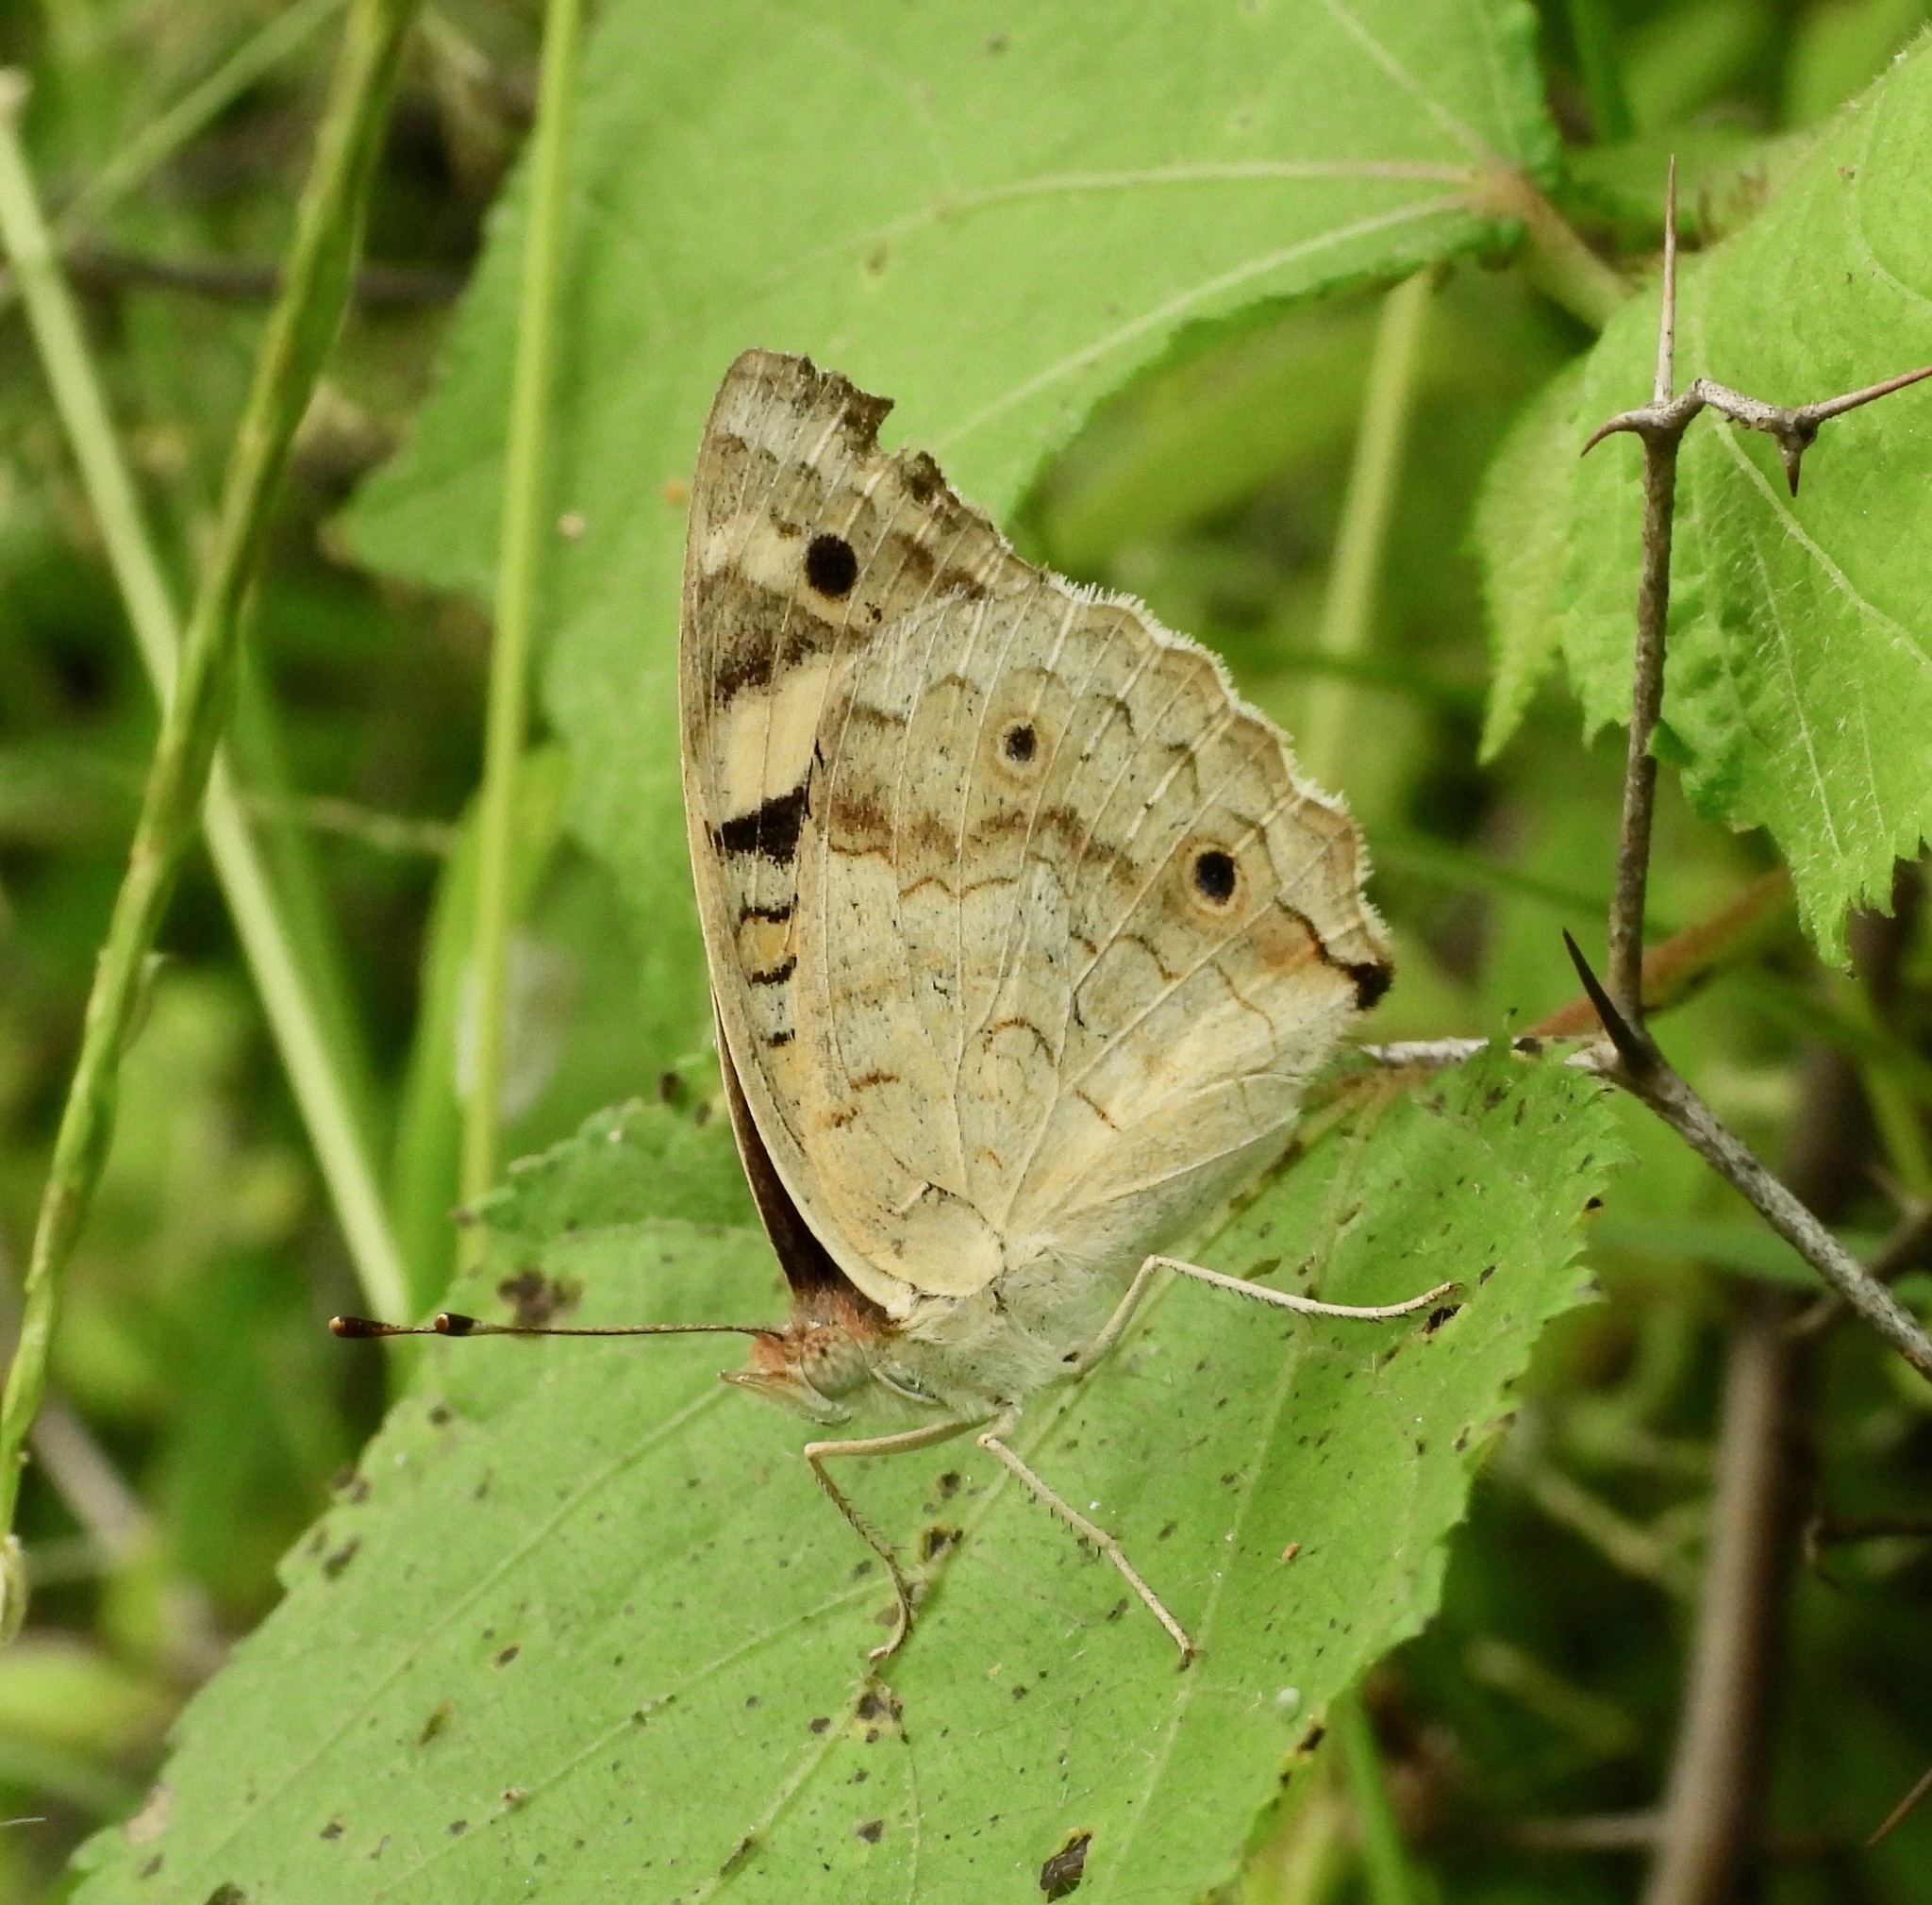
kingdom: Animalia
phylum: Arthropoda
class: Insecta
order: Lepidoptera
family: Nymphalidae
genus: Junonia
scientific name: Junonia orithya
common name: Blue pansy
